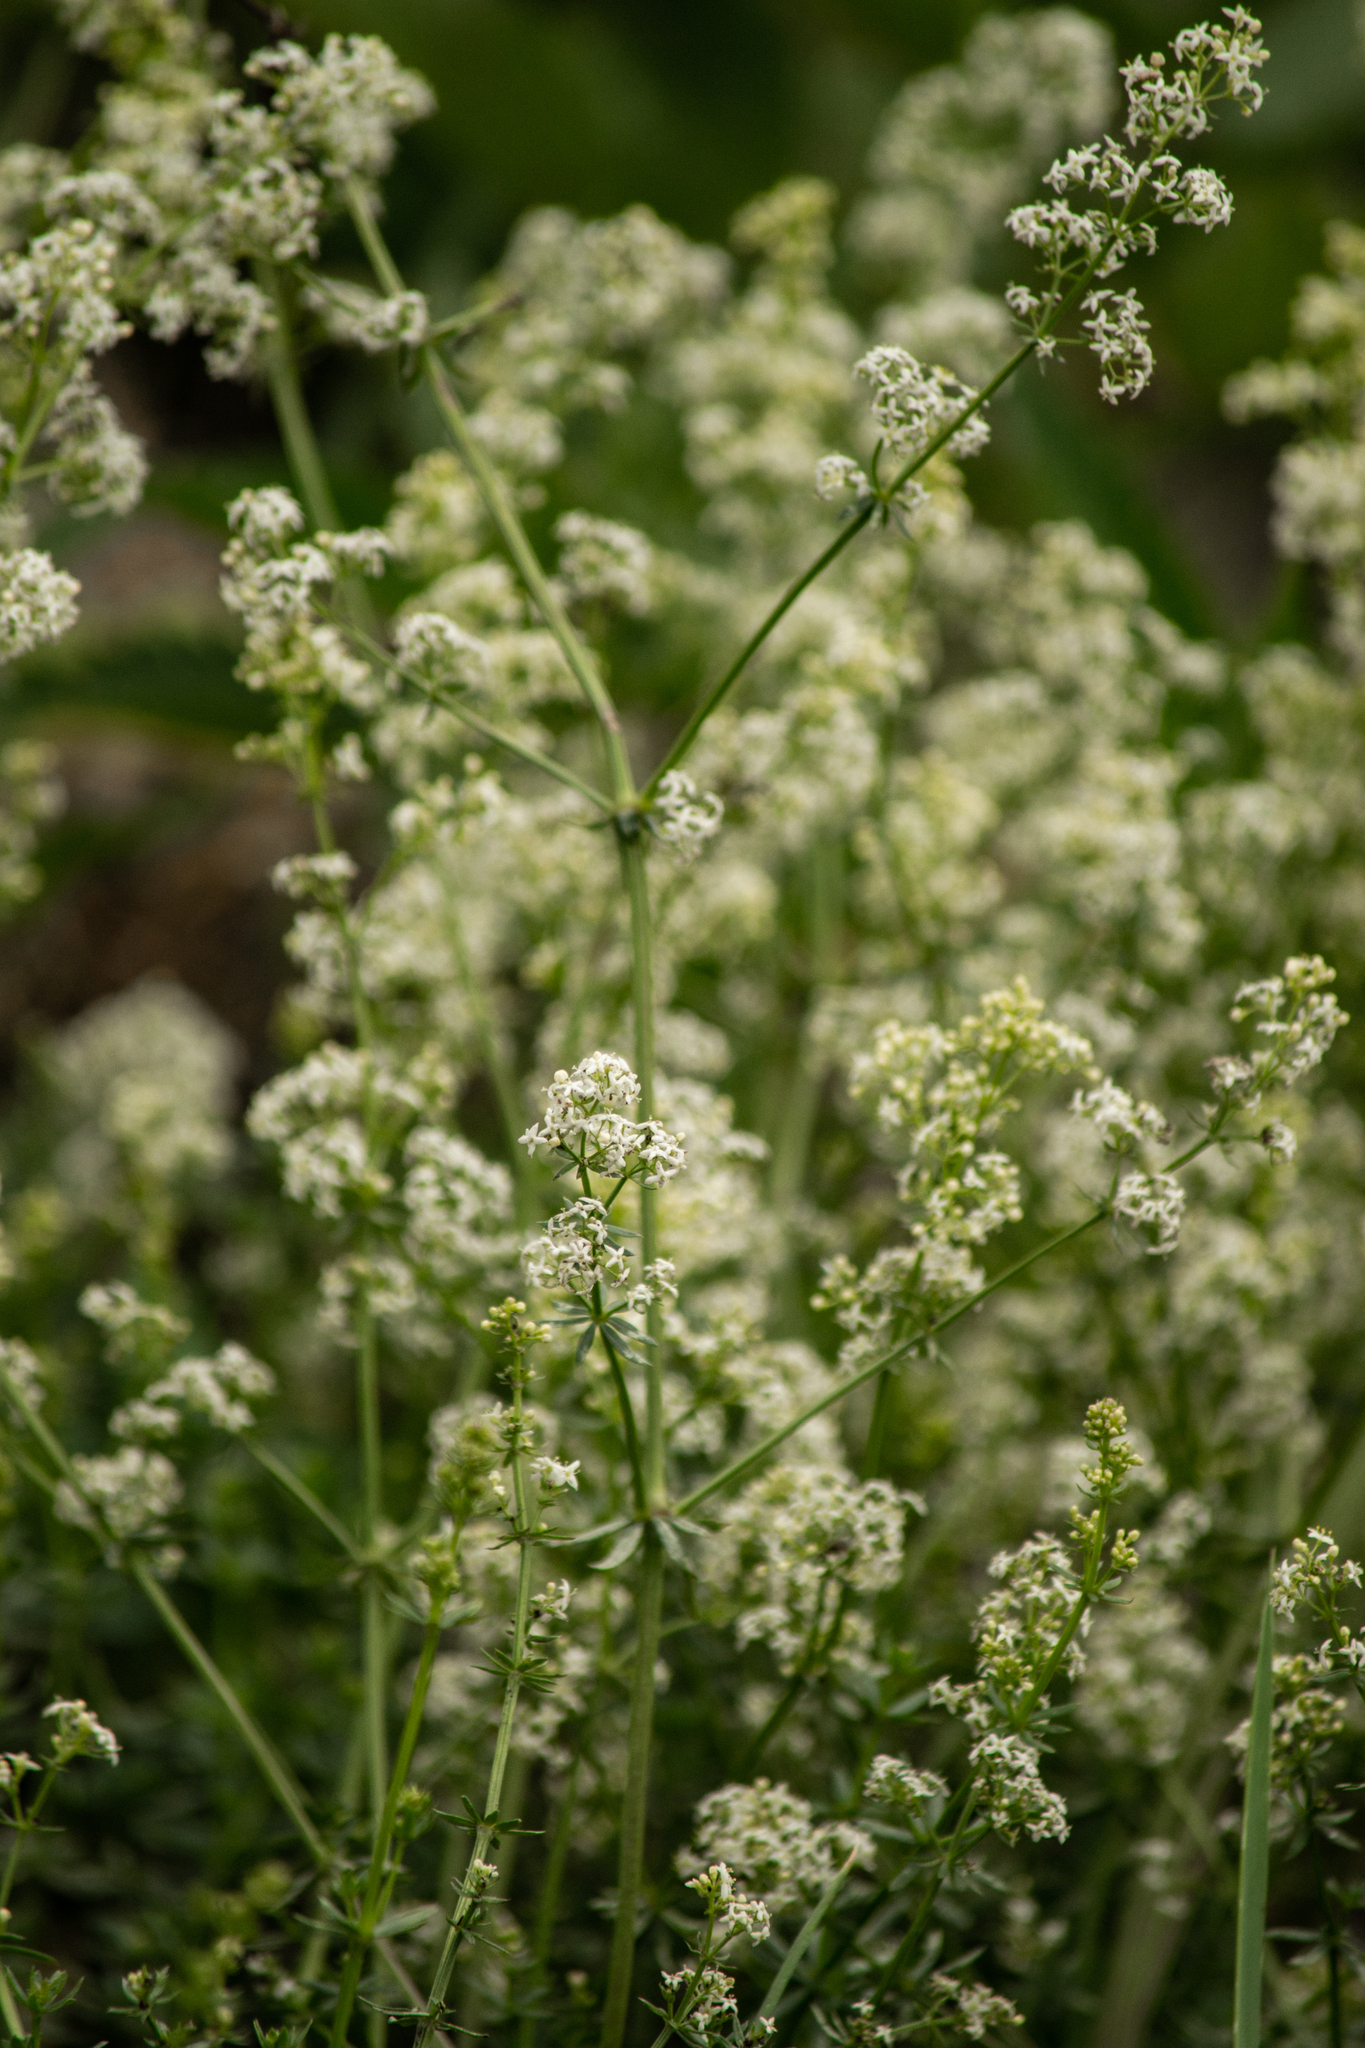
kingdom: Plantae
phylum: Tracheophyta
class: Magnoliopsida
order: Gentianales
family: Rubiaceae
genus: Galium
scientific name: Galium mollugo
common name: Hedge bedstraw
